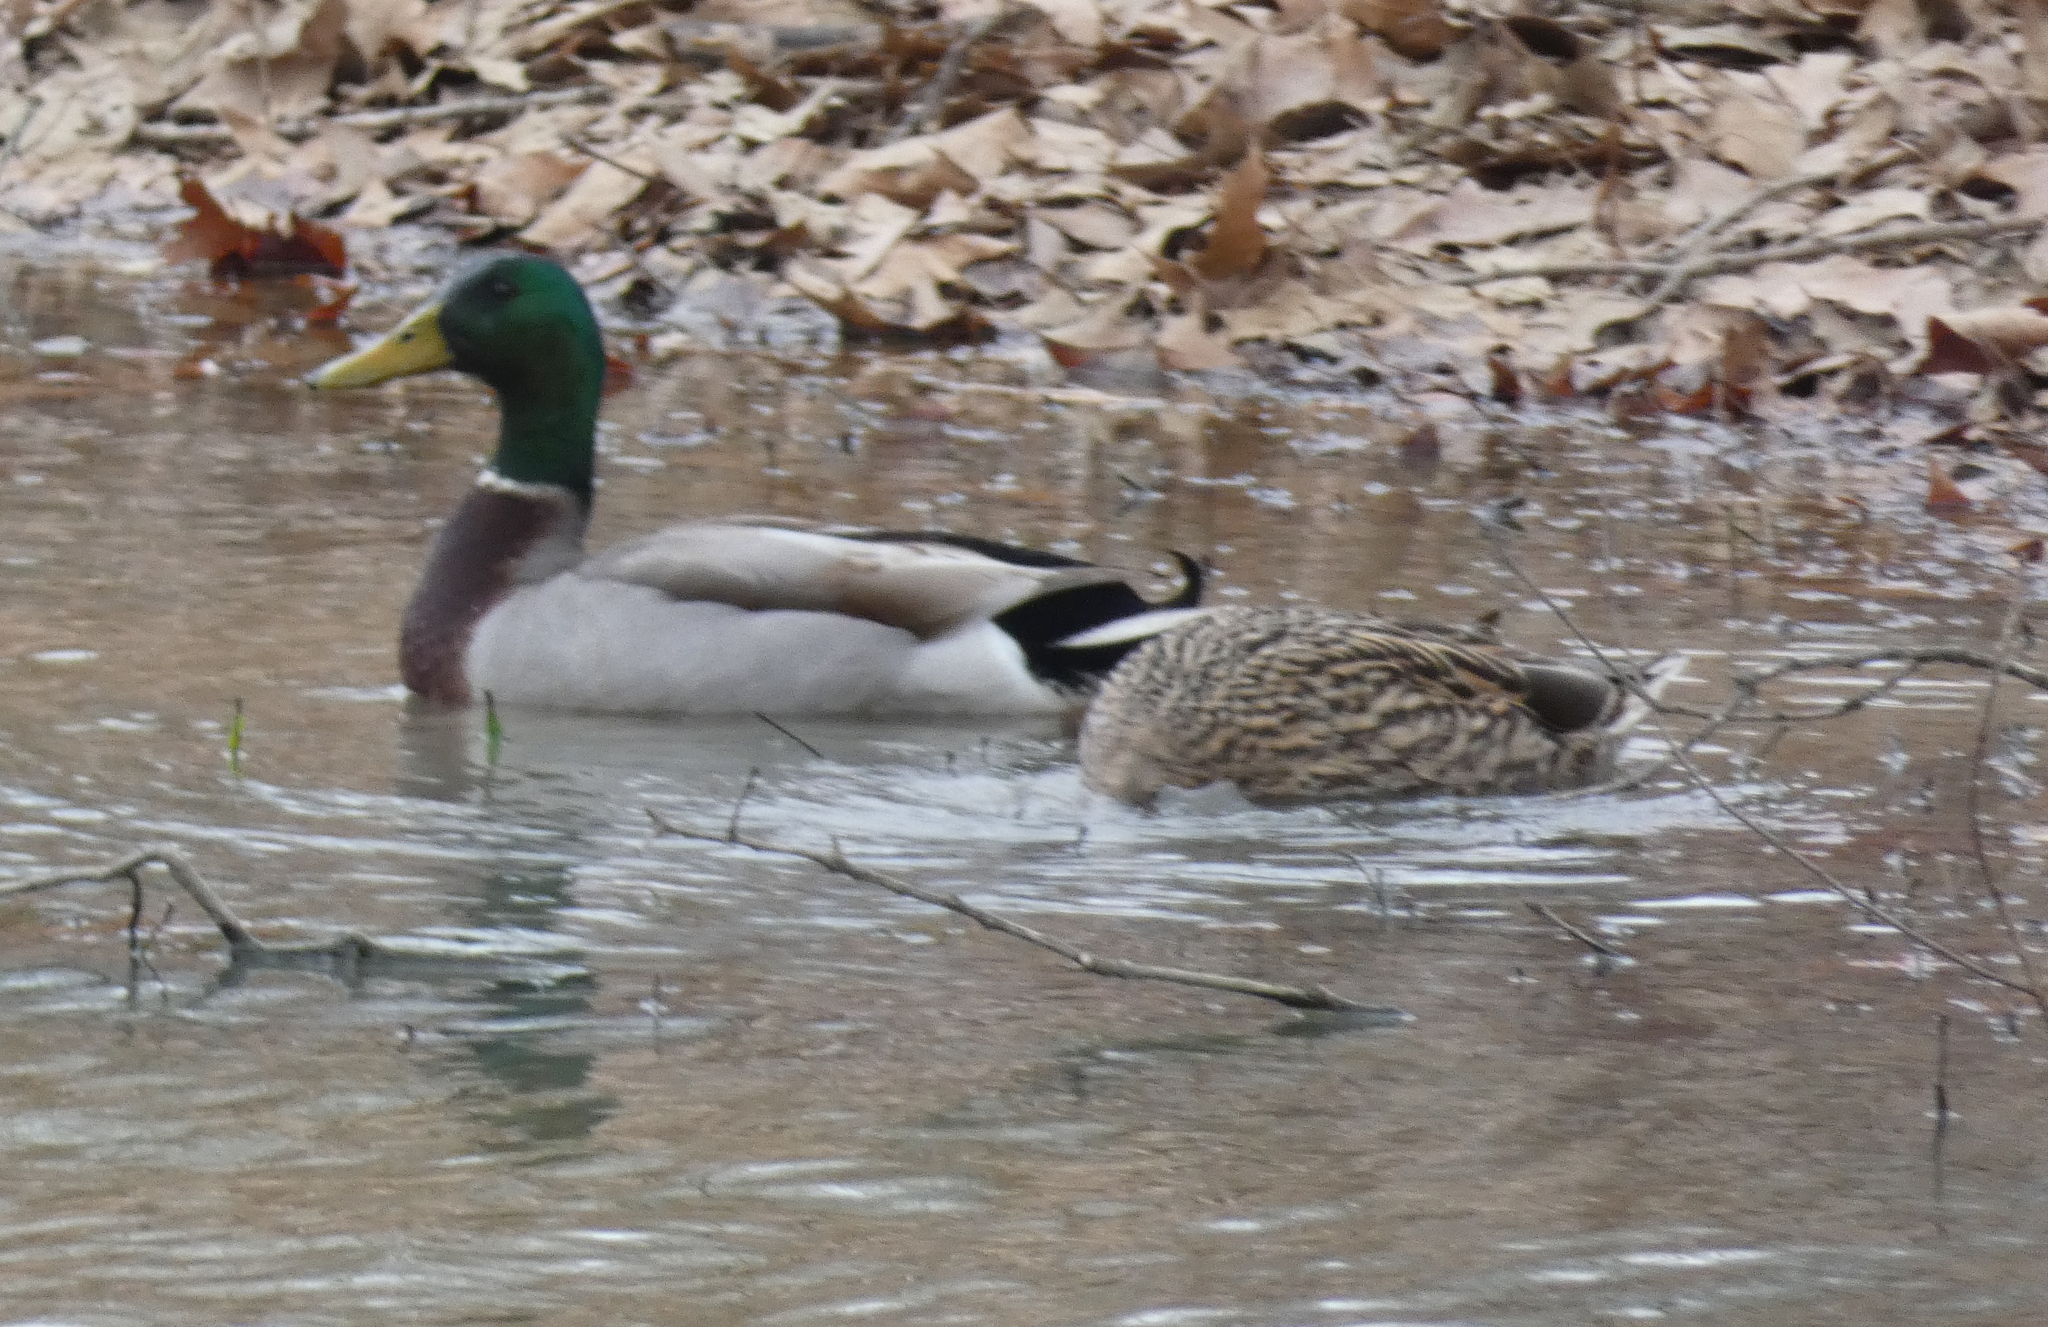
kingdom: Animalia
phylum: Chordata
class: Aves
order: Anseriformes
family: Anatidae
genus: Anas
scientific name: Anas platyrhynchos
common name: Mallard
